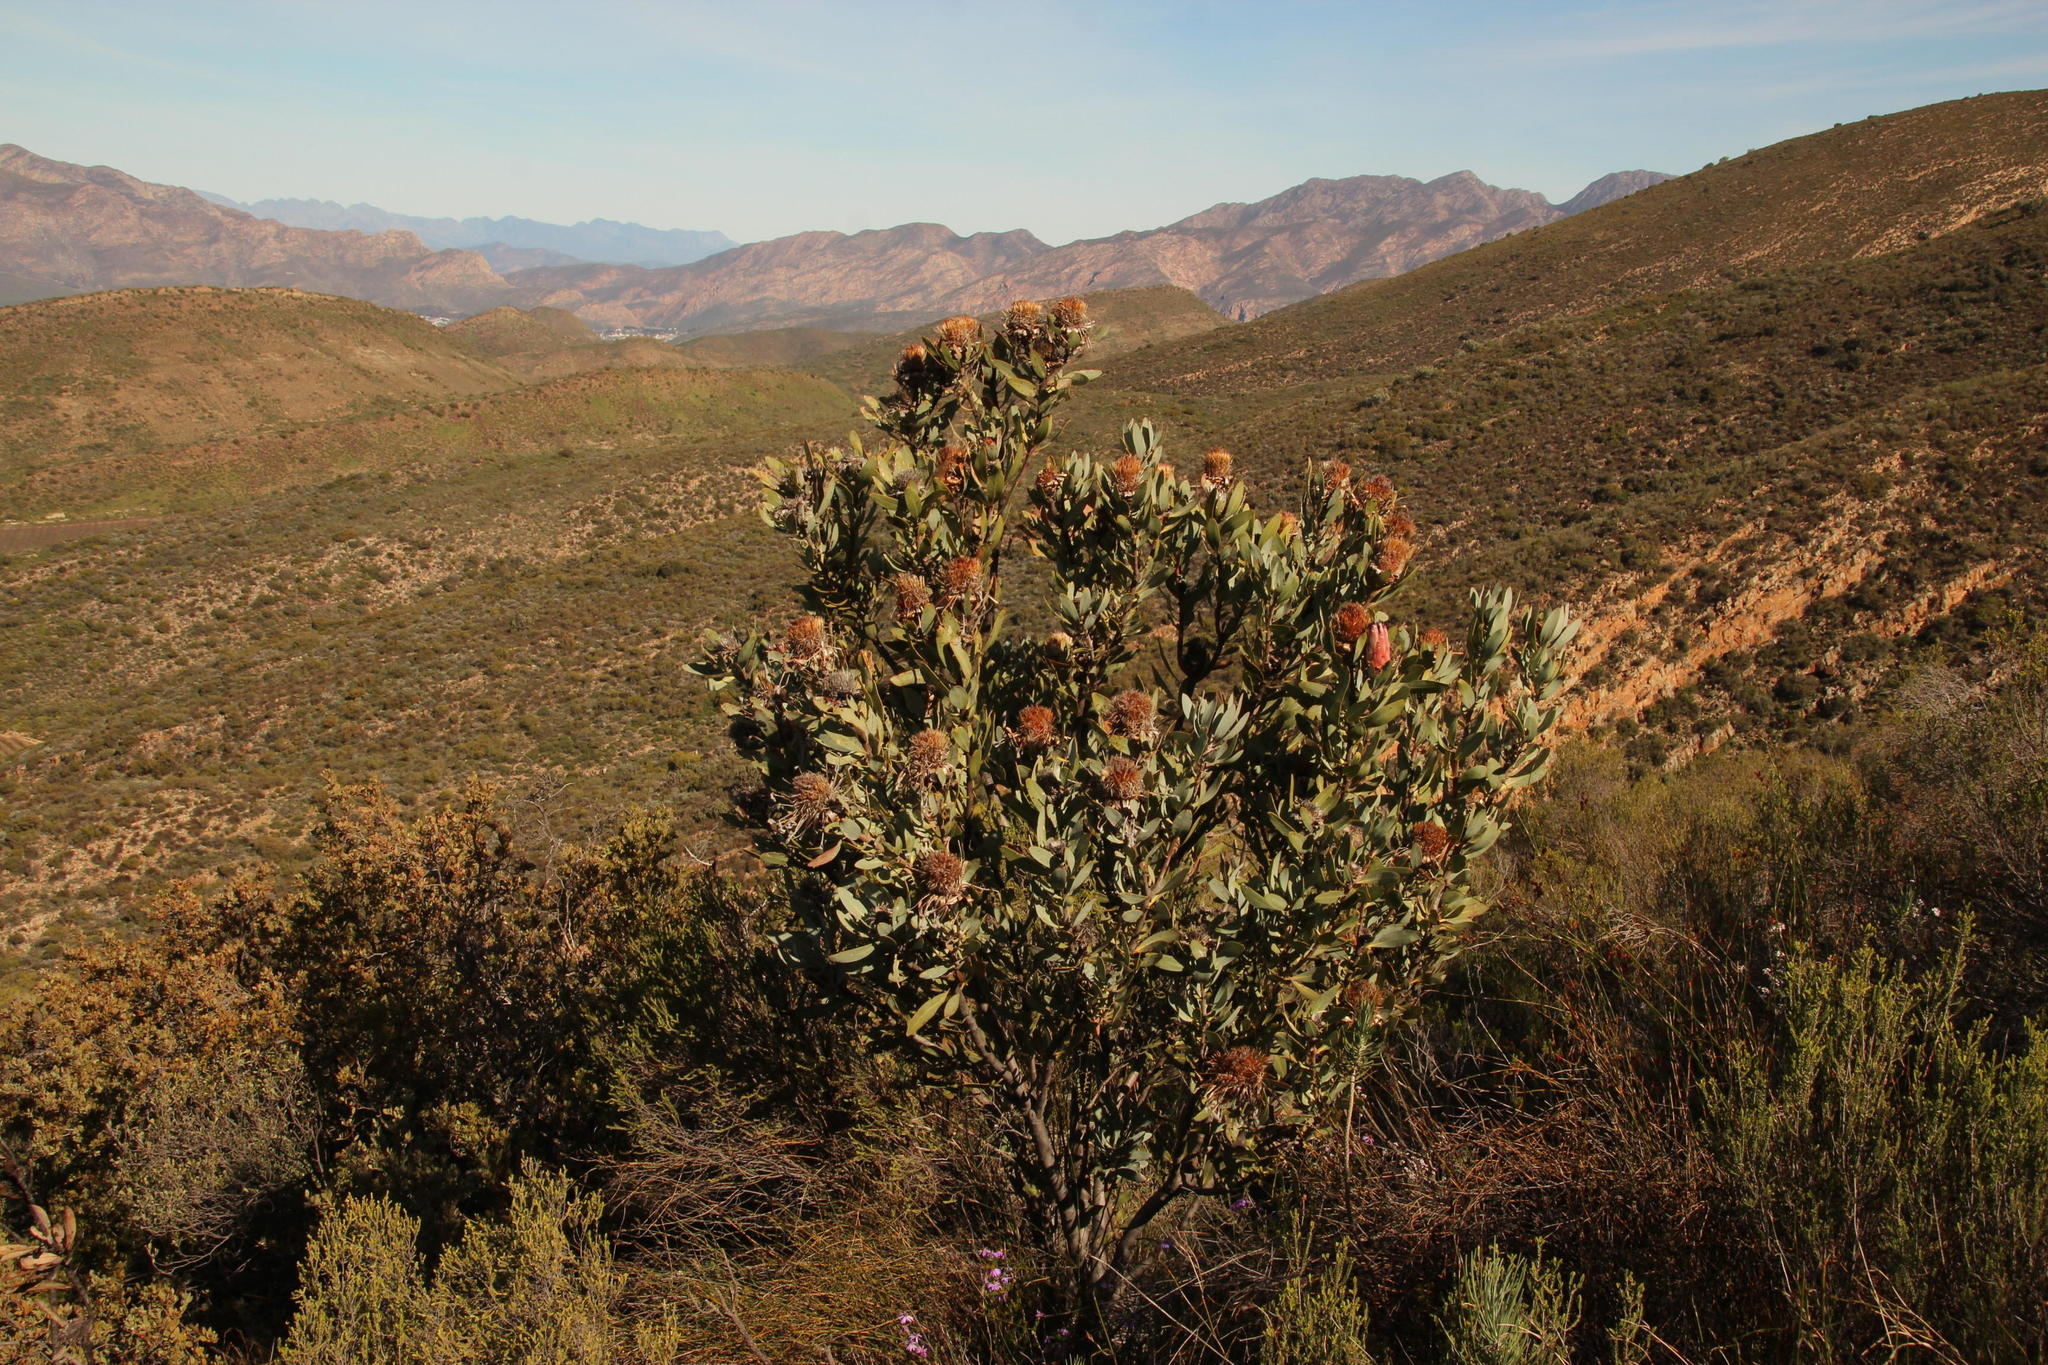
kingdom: Plantae
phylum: Tracheophyta
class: Magnoliopsida
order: Proteales
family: Proteaceae
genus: Protea
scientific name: Protea laurifolia
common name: Grey-leaf sugarbsh
